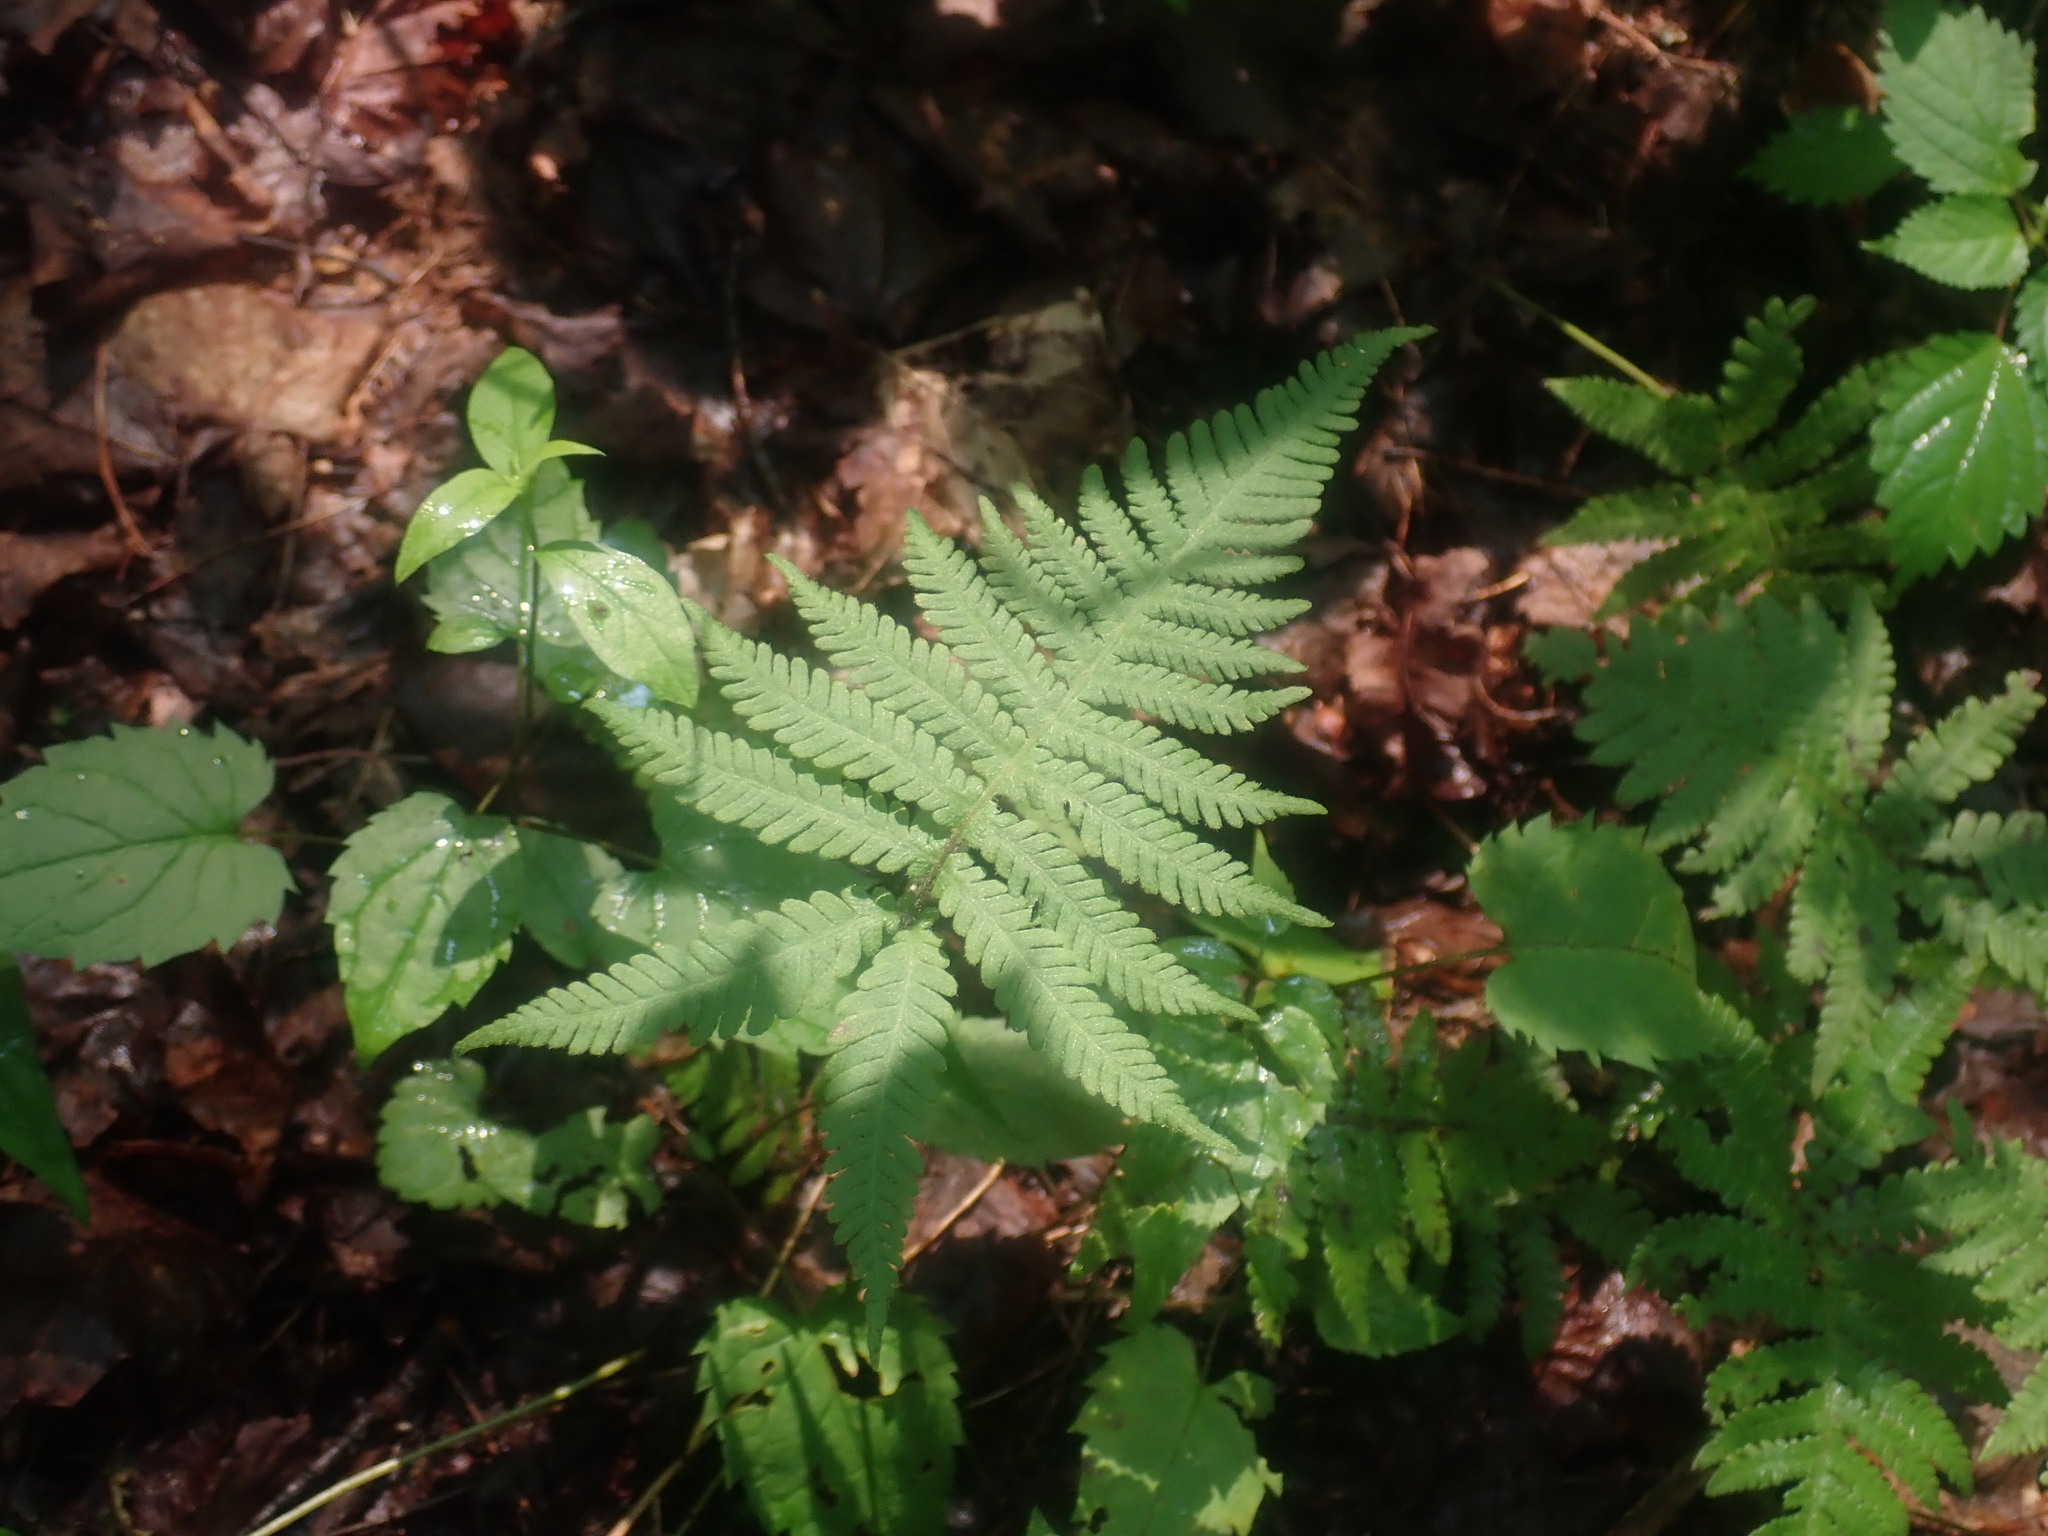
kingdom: Plantae
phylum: Tracheophyta
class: Polypodiopsida
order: Polypodiales
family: Thelypteridaceae
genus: Phegopteris
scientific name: Phegopteris connectilis
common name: Beech fern
